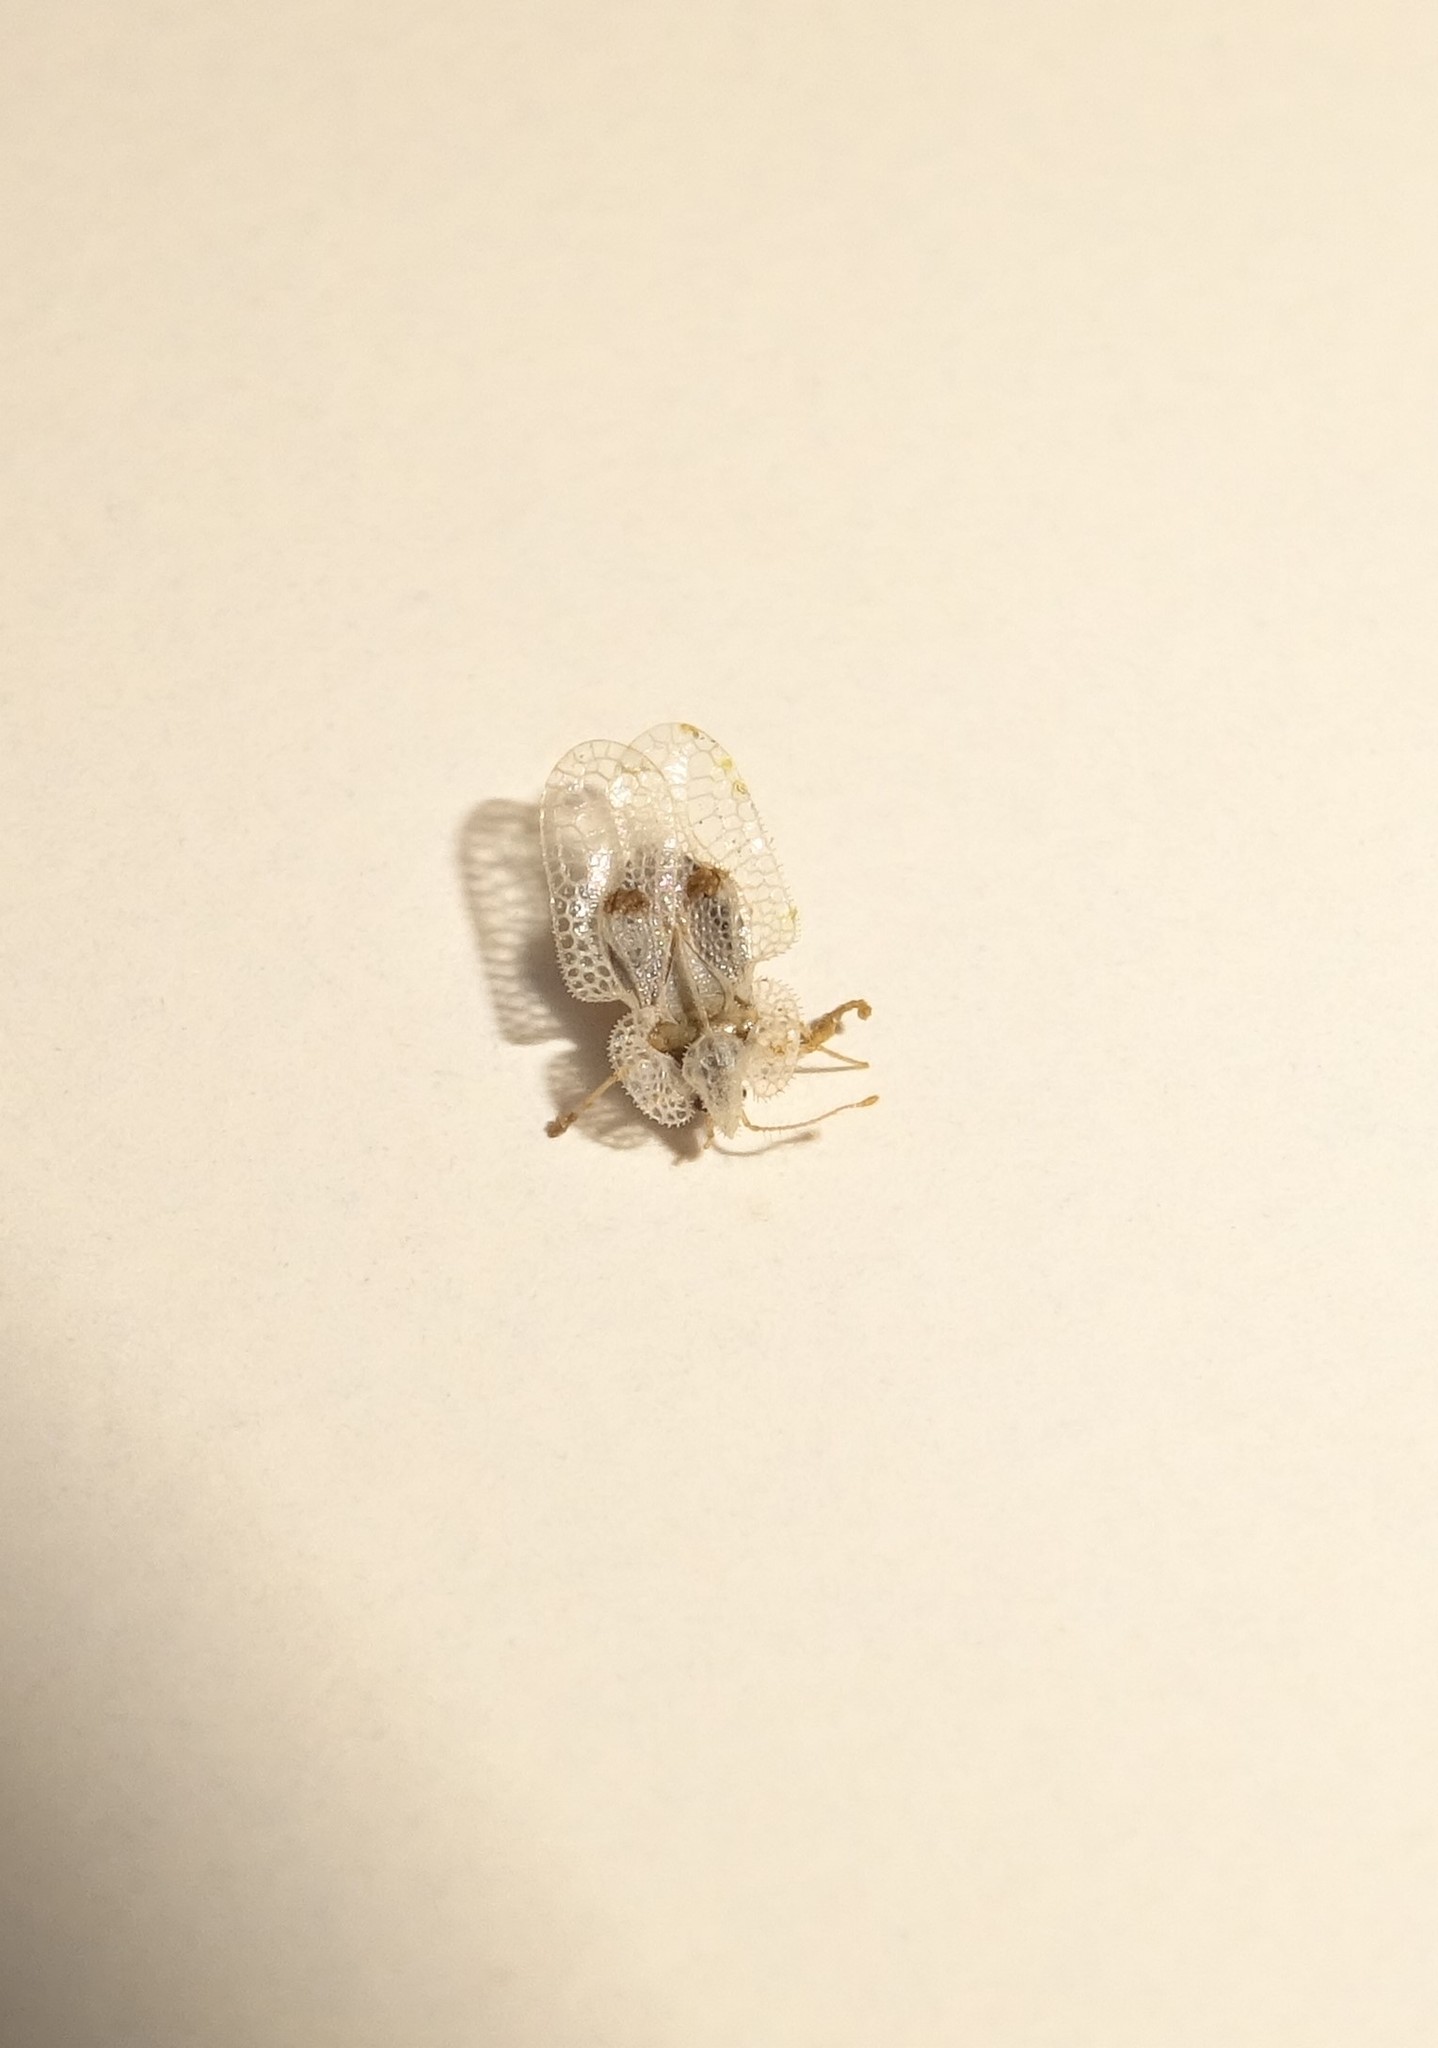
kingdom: Animalia
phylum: Arthropoda
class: Insecta
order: Hemiptera
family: Tingidae
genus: Corythucha
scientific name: Corythucha ciliata
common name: Sycamore lace bug
